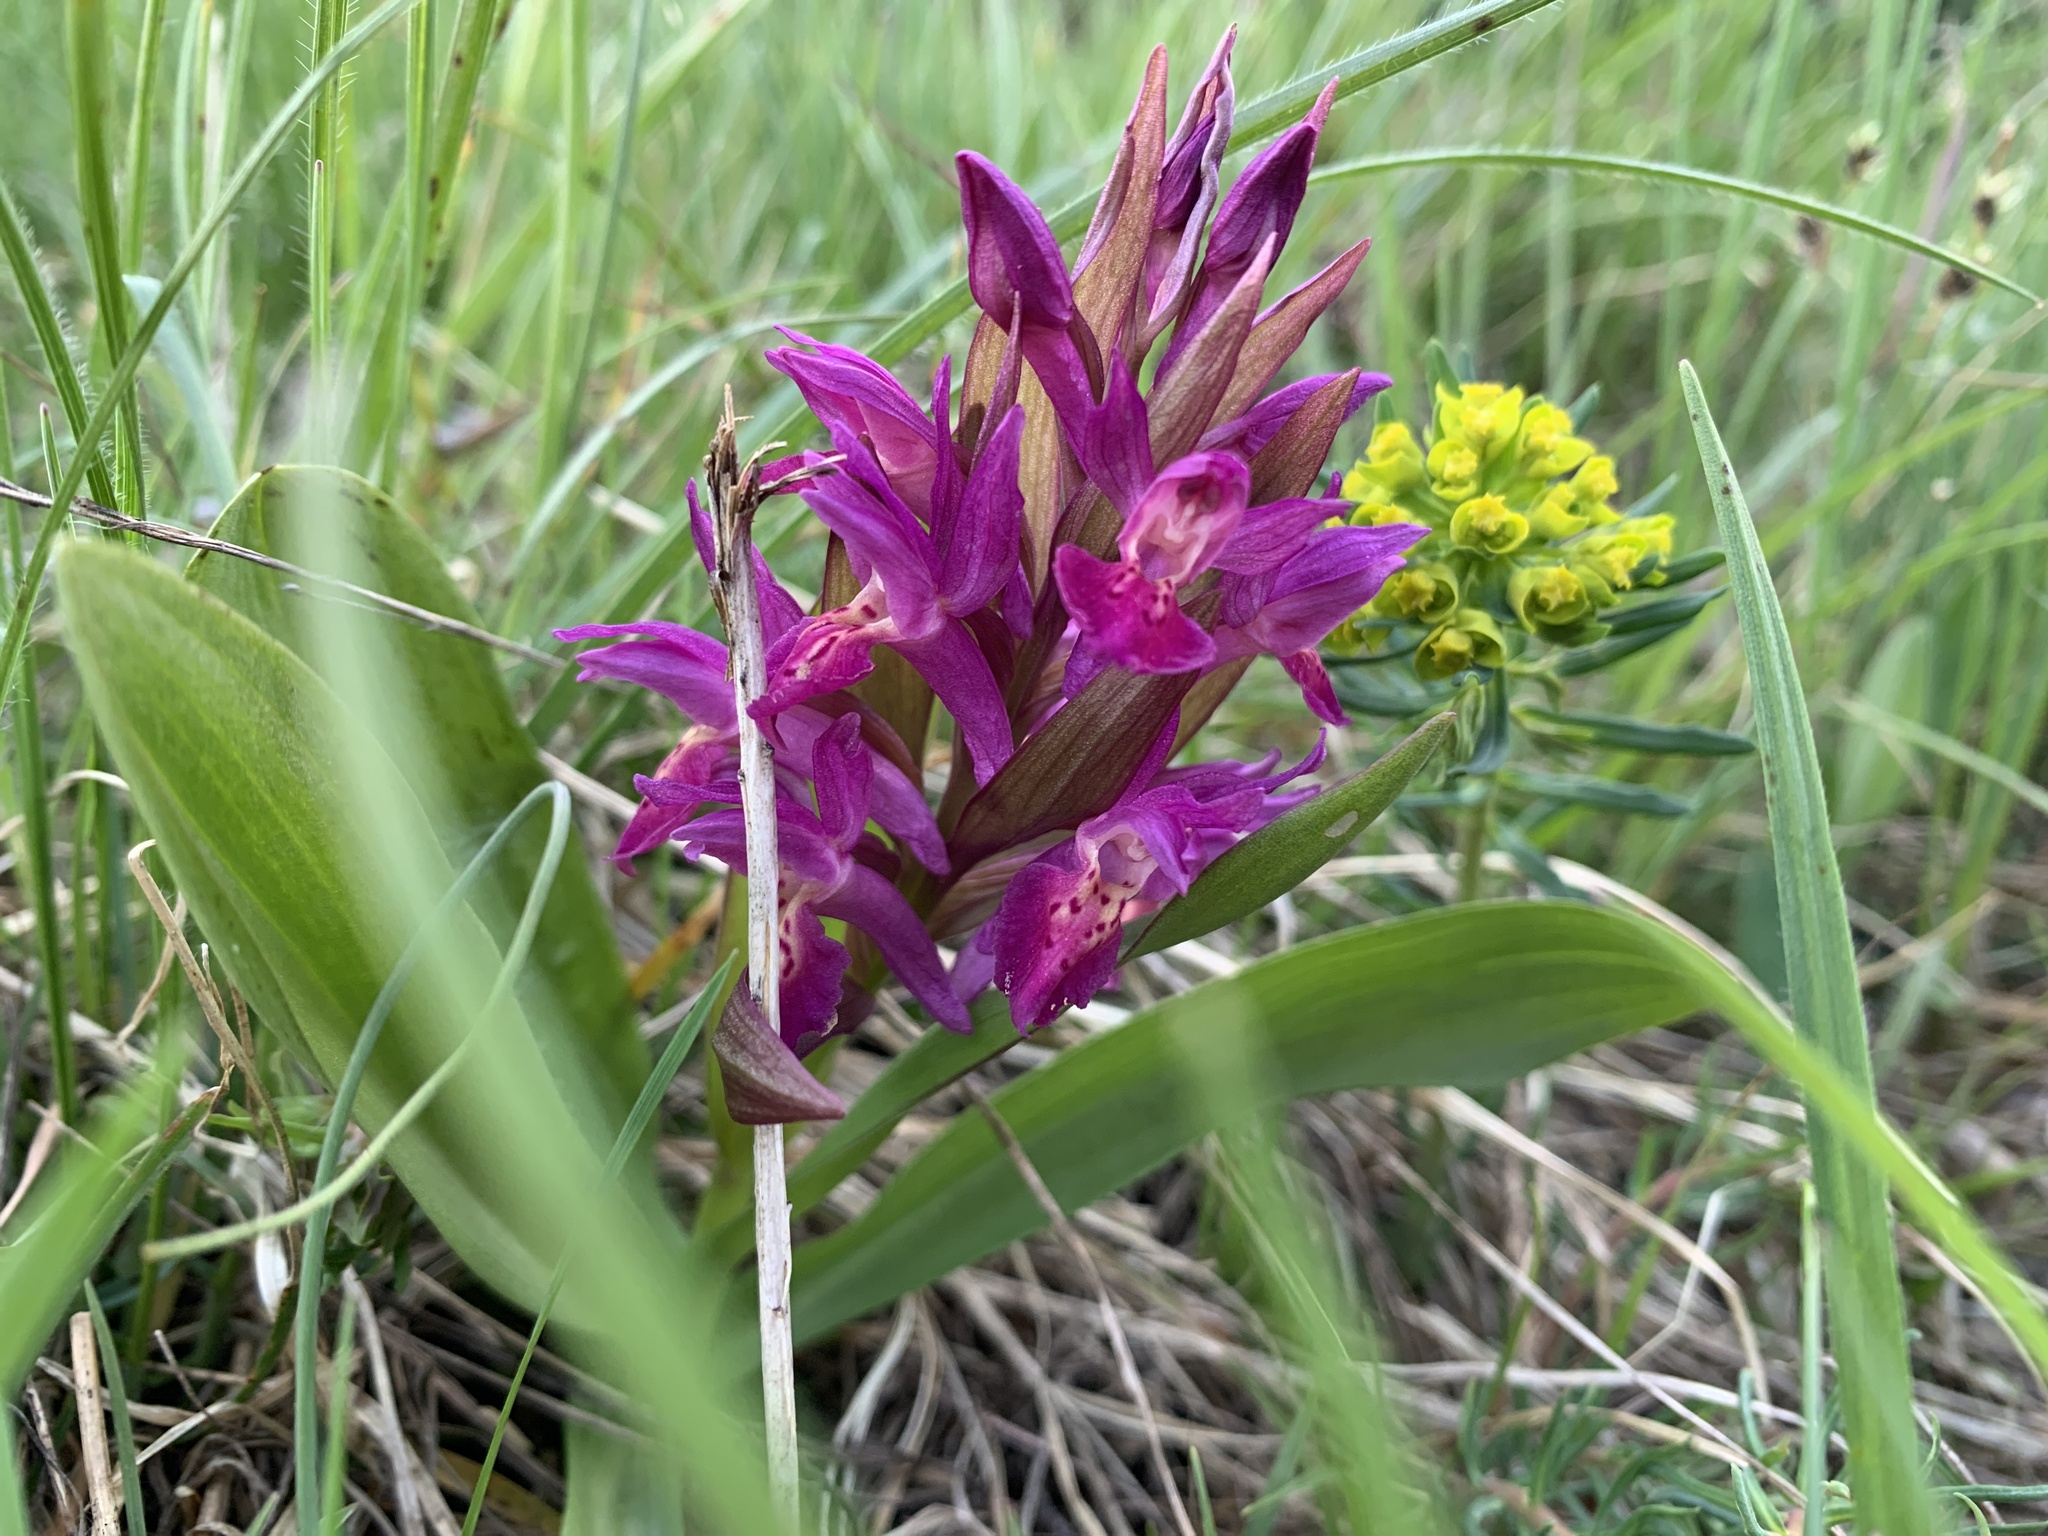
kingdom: Plantae
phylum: Tracheophyta
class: Liliopsida
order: Asparagales
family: Orchidaceae
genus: Dactylorhiza
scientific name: Dactylorhiza sambucina
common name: Elder-flowered orchid
